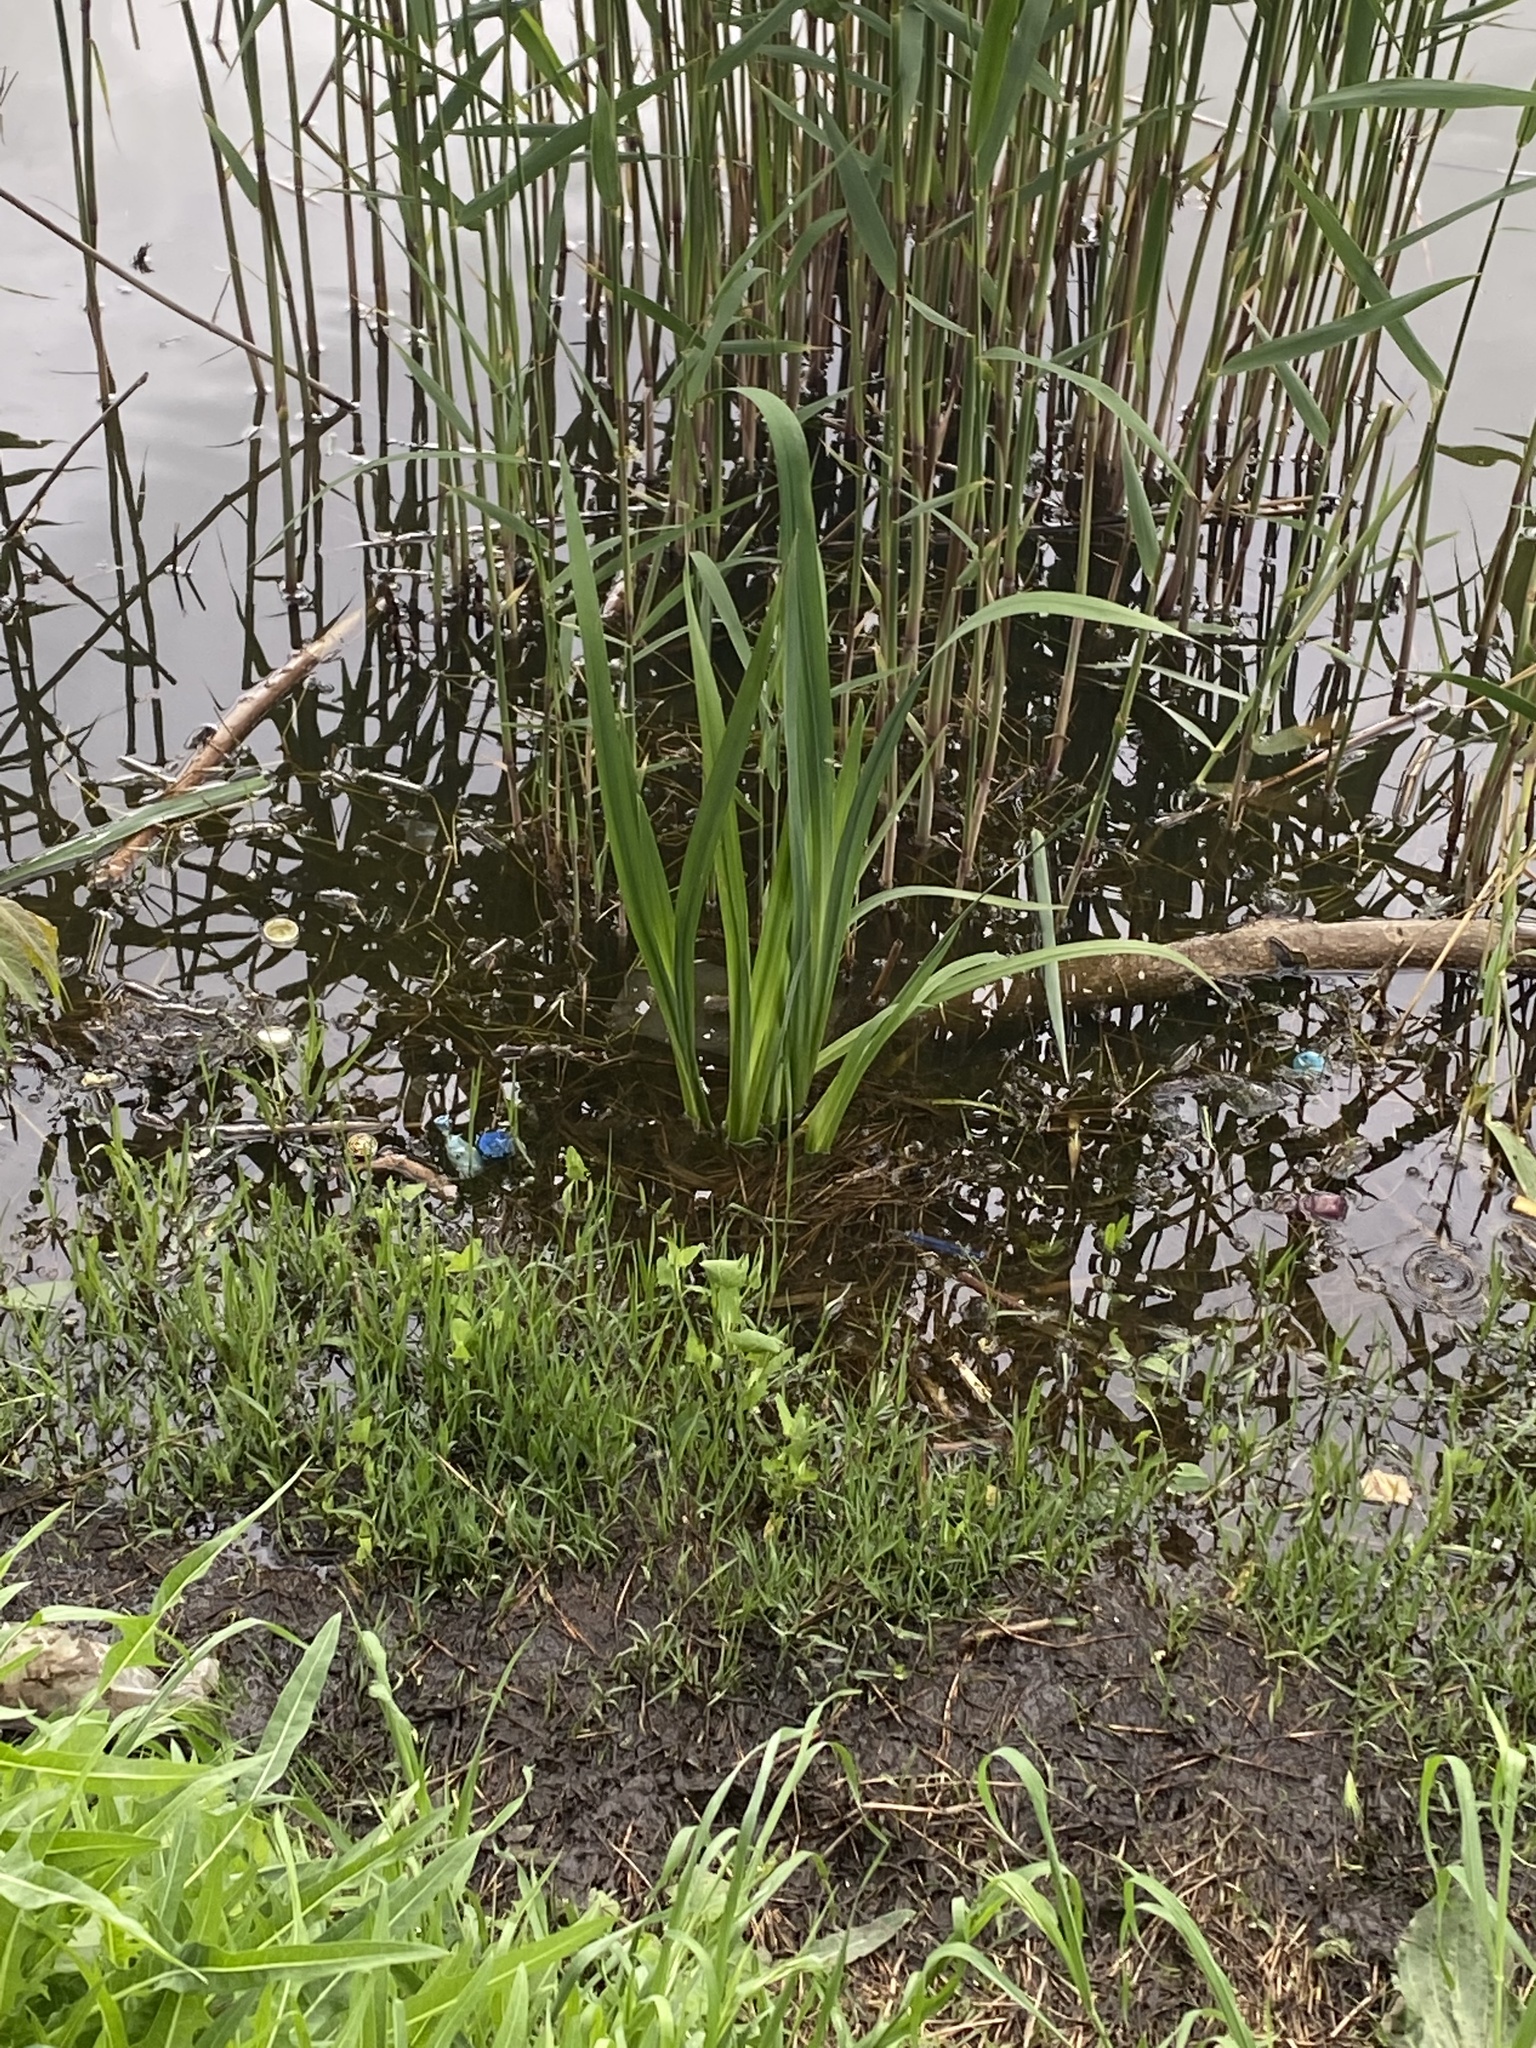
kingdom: Plantae
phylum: Tracheophyta
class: Liliopsida
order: Asparagales
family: Iridaceae
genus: Iris
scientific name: Iris pseudacorus
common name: Yellow flag
